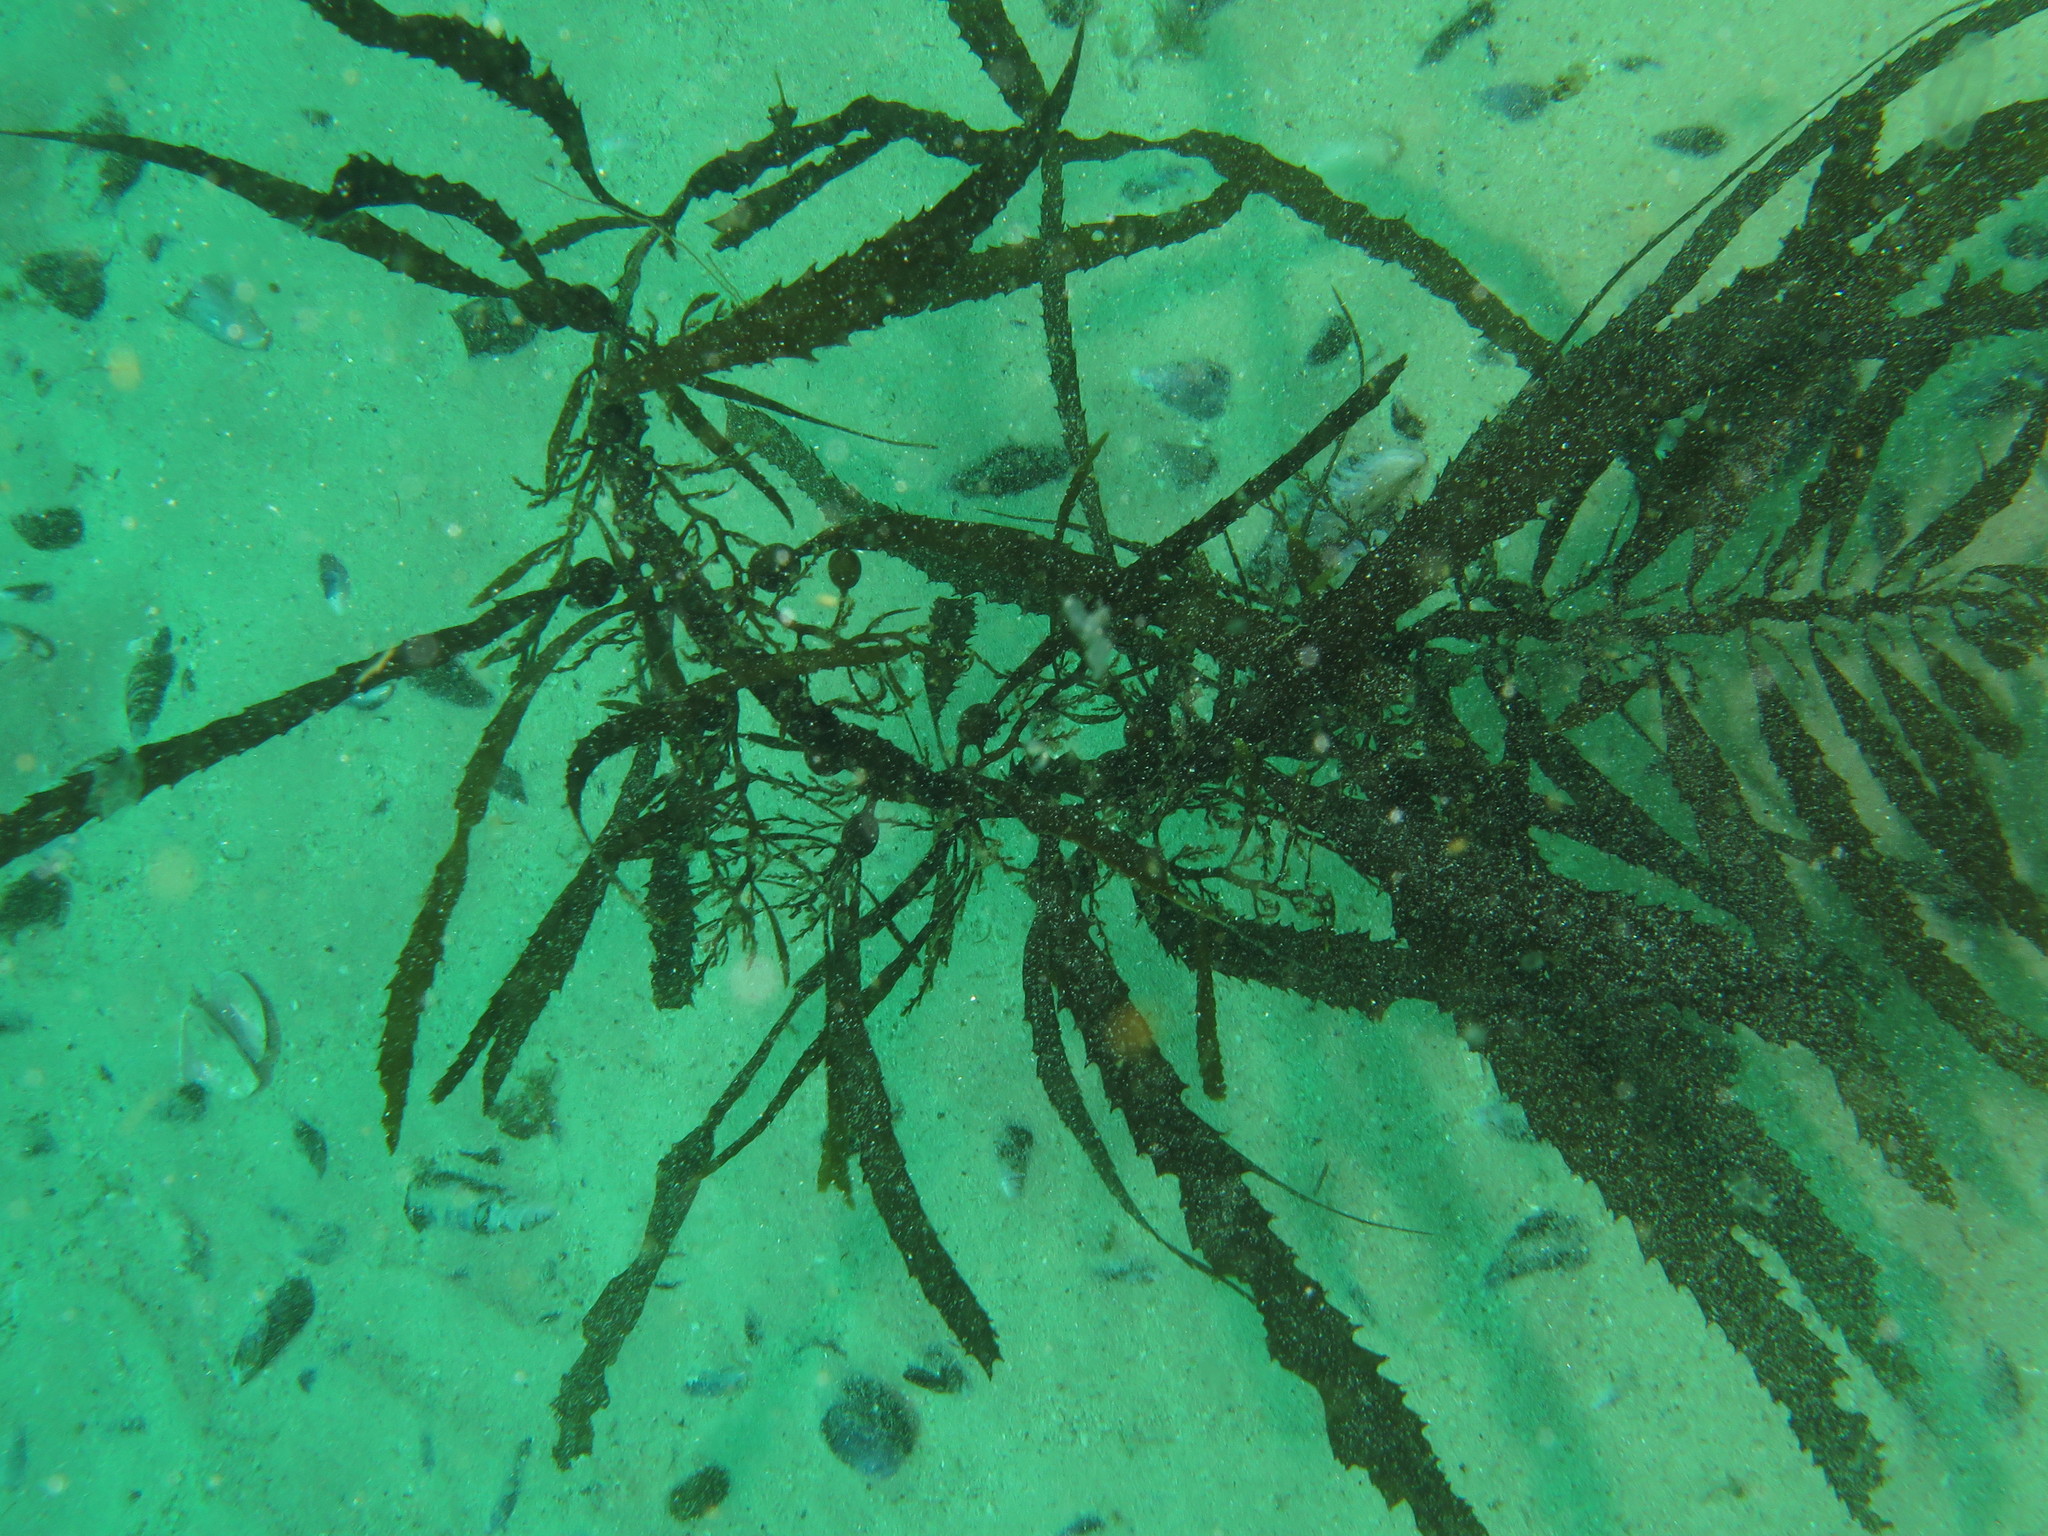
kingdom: Chromista
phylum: Ochrophyta
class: Phaeophyceae
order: Fucales
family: Sargassaceae
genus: Anthophycus
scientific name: Anthophycus
